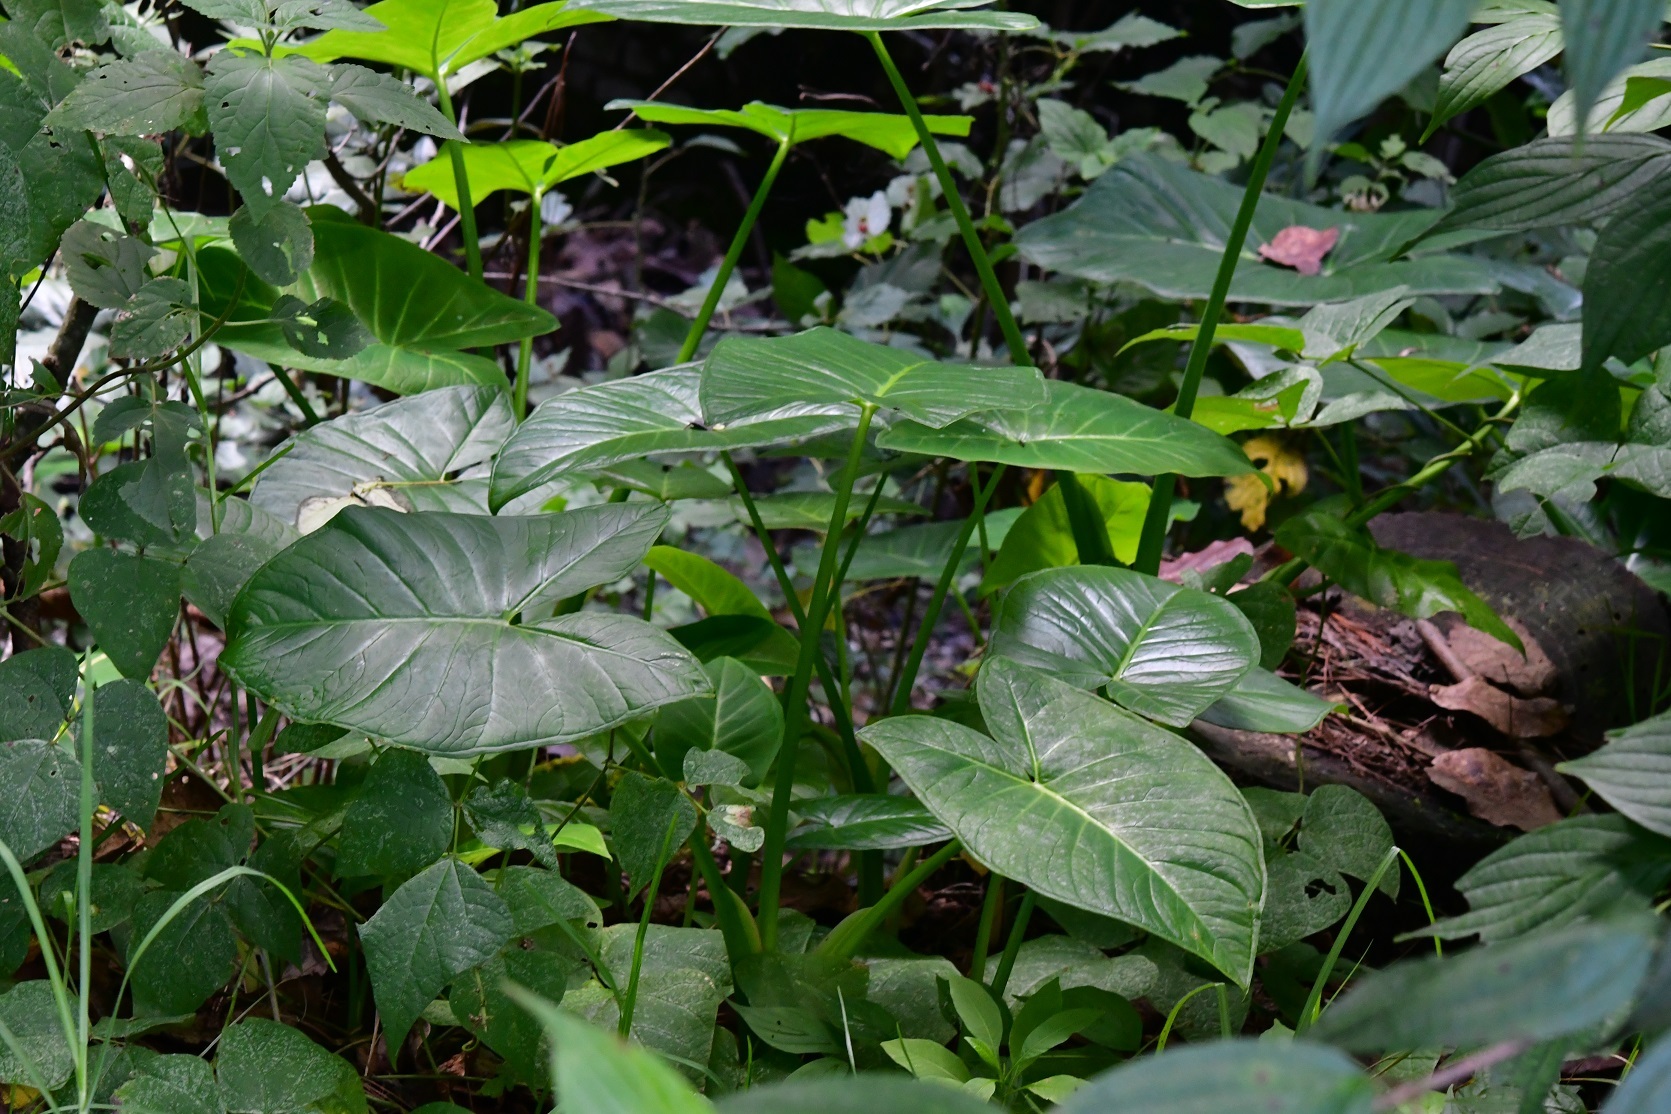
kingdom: Plantae
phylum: Tracheophyta
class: Liliopsida
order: Alismatales
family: Araceae
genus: Xanthosoma
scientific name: Xanthosoma robustum
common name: Capote
